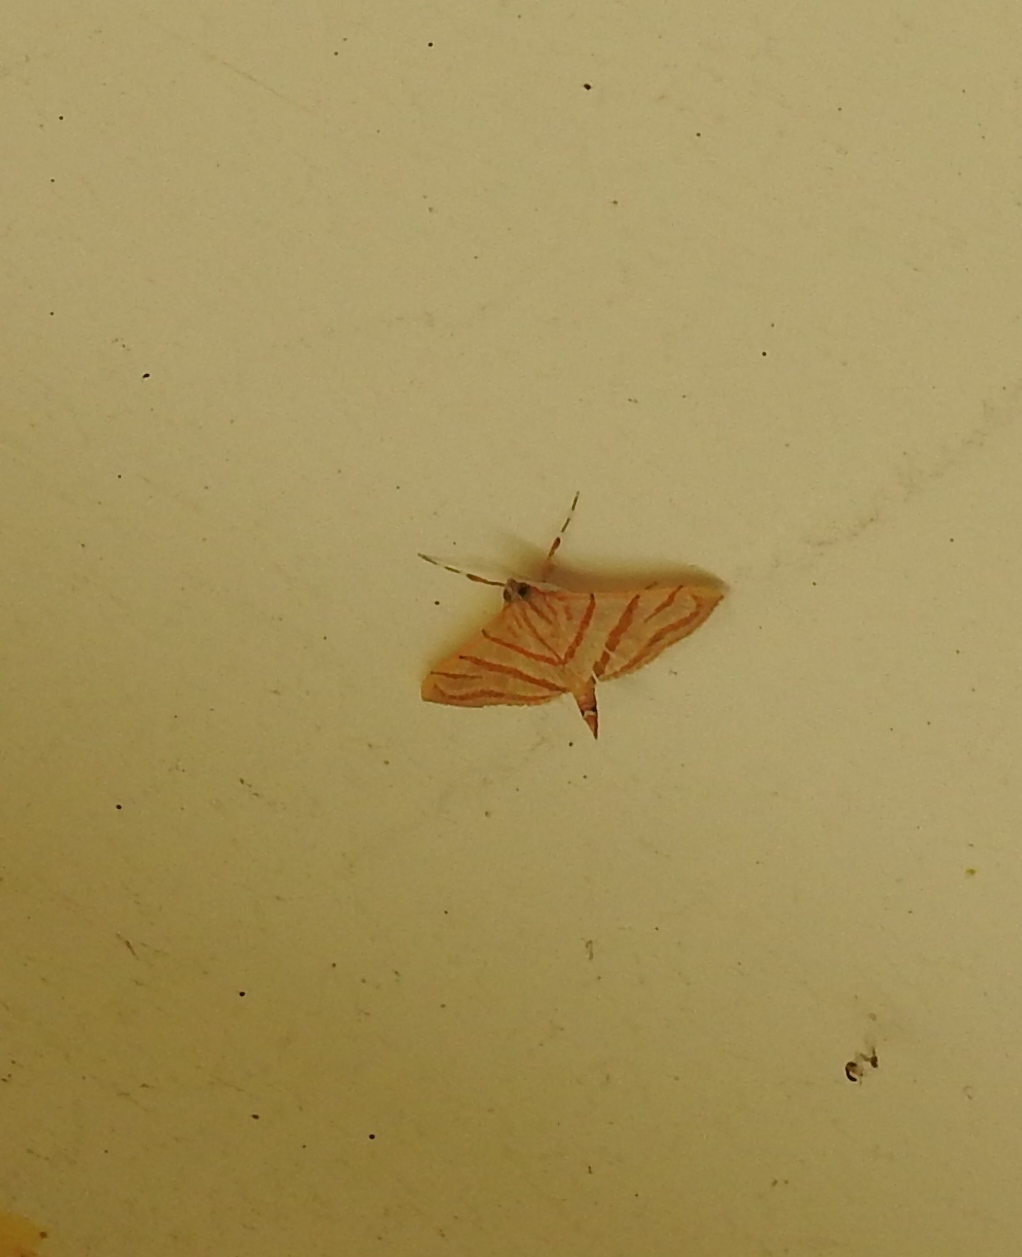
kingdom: Animalia
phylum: Arthropoda
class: Insecta
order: Lepidoptera
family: Crambidae
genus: Pagyda
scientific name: Pagyda salvalis
